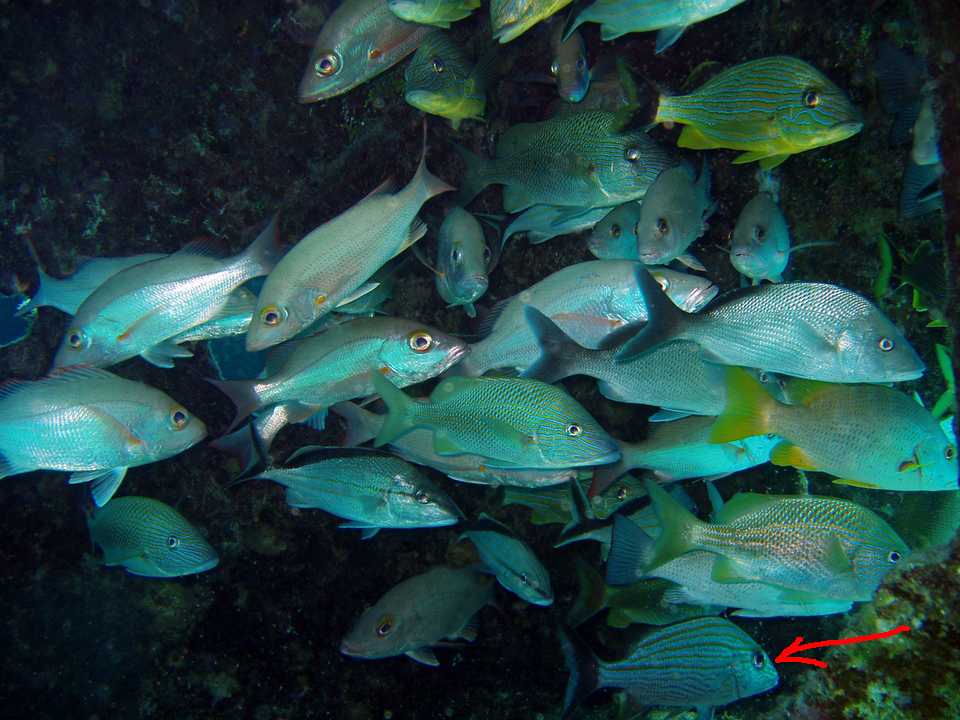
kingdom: Animalia
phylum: Chordata
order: Perciformes
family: Haemulidae
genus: Haemulon
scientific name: Haemulon carbonarium
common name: Caesar grunt
